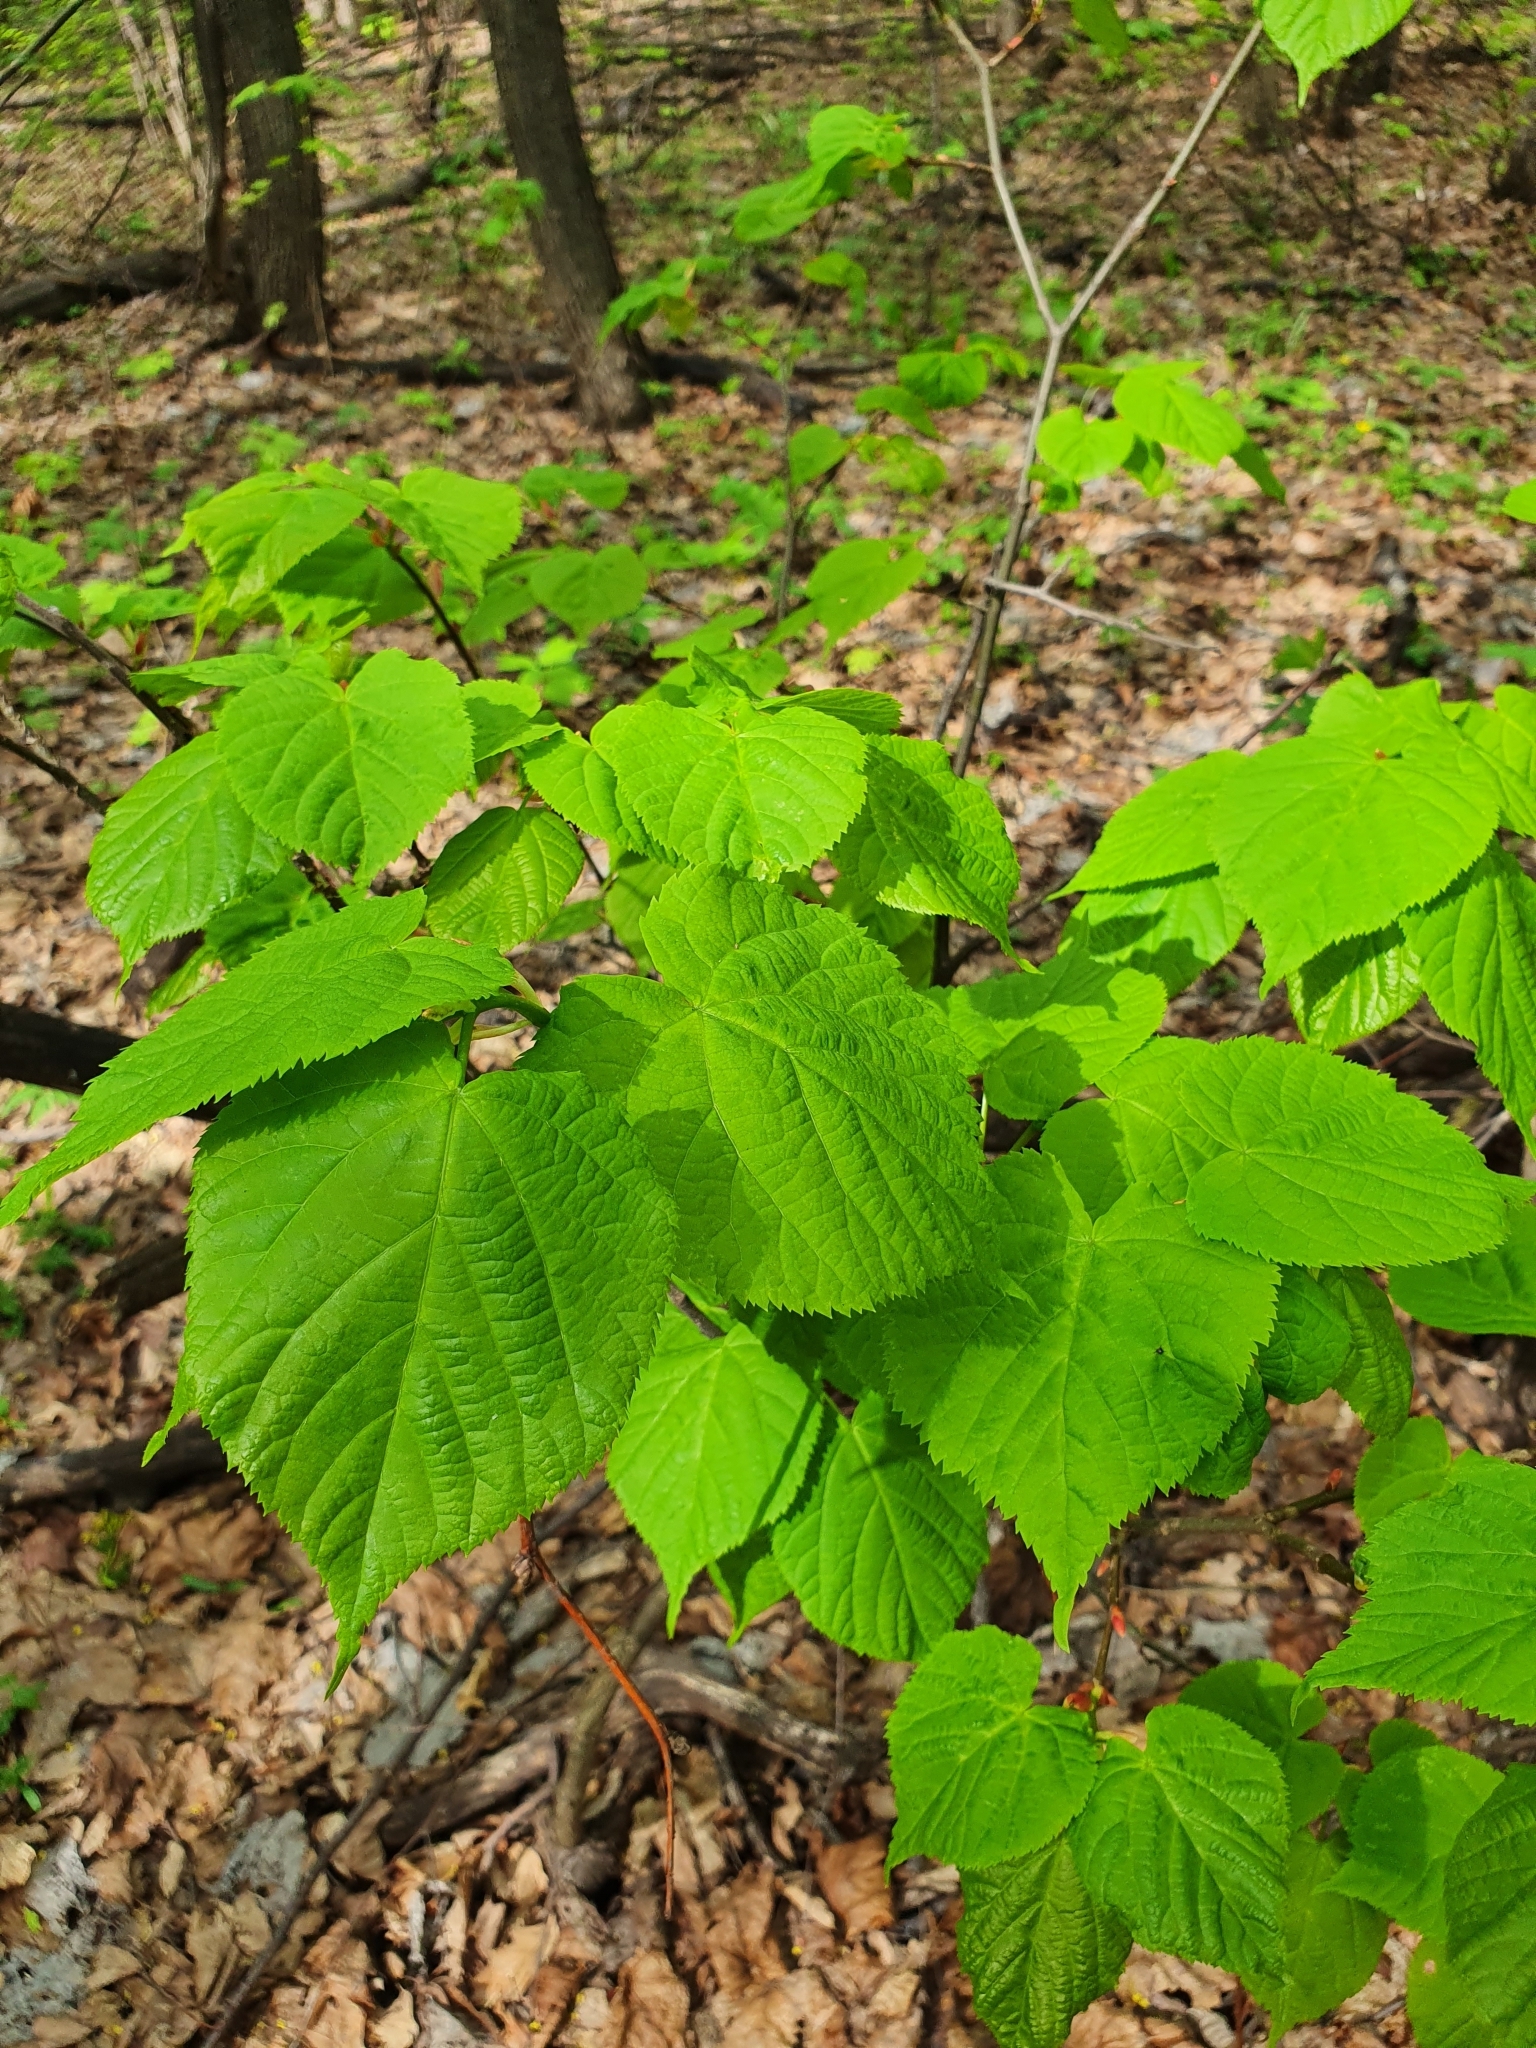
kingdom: Plantae
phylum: Tracheophyta
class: Magnoliopsida
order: Malvales
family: Malvaceae
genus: Tilia
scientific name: Tilia cordata
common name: Small-leaved lime
